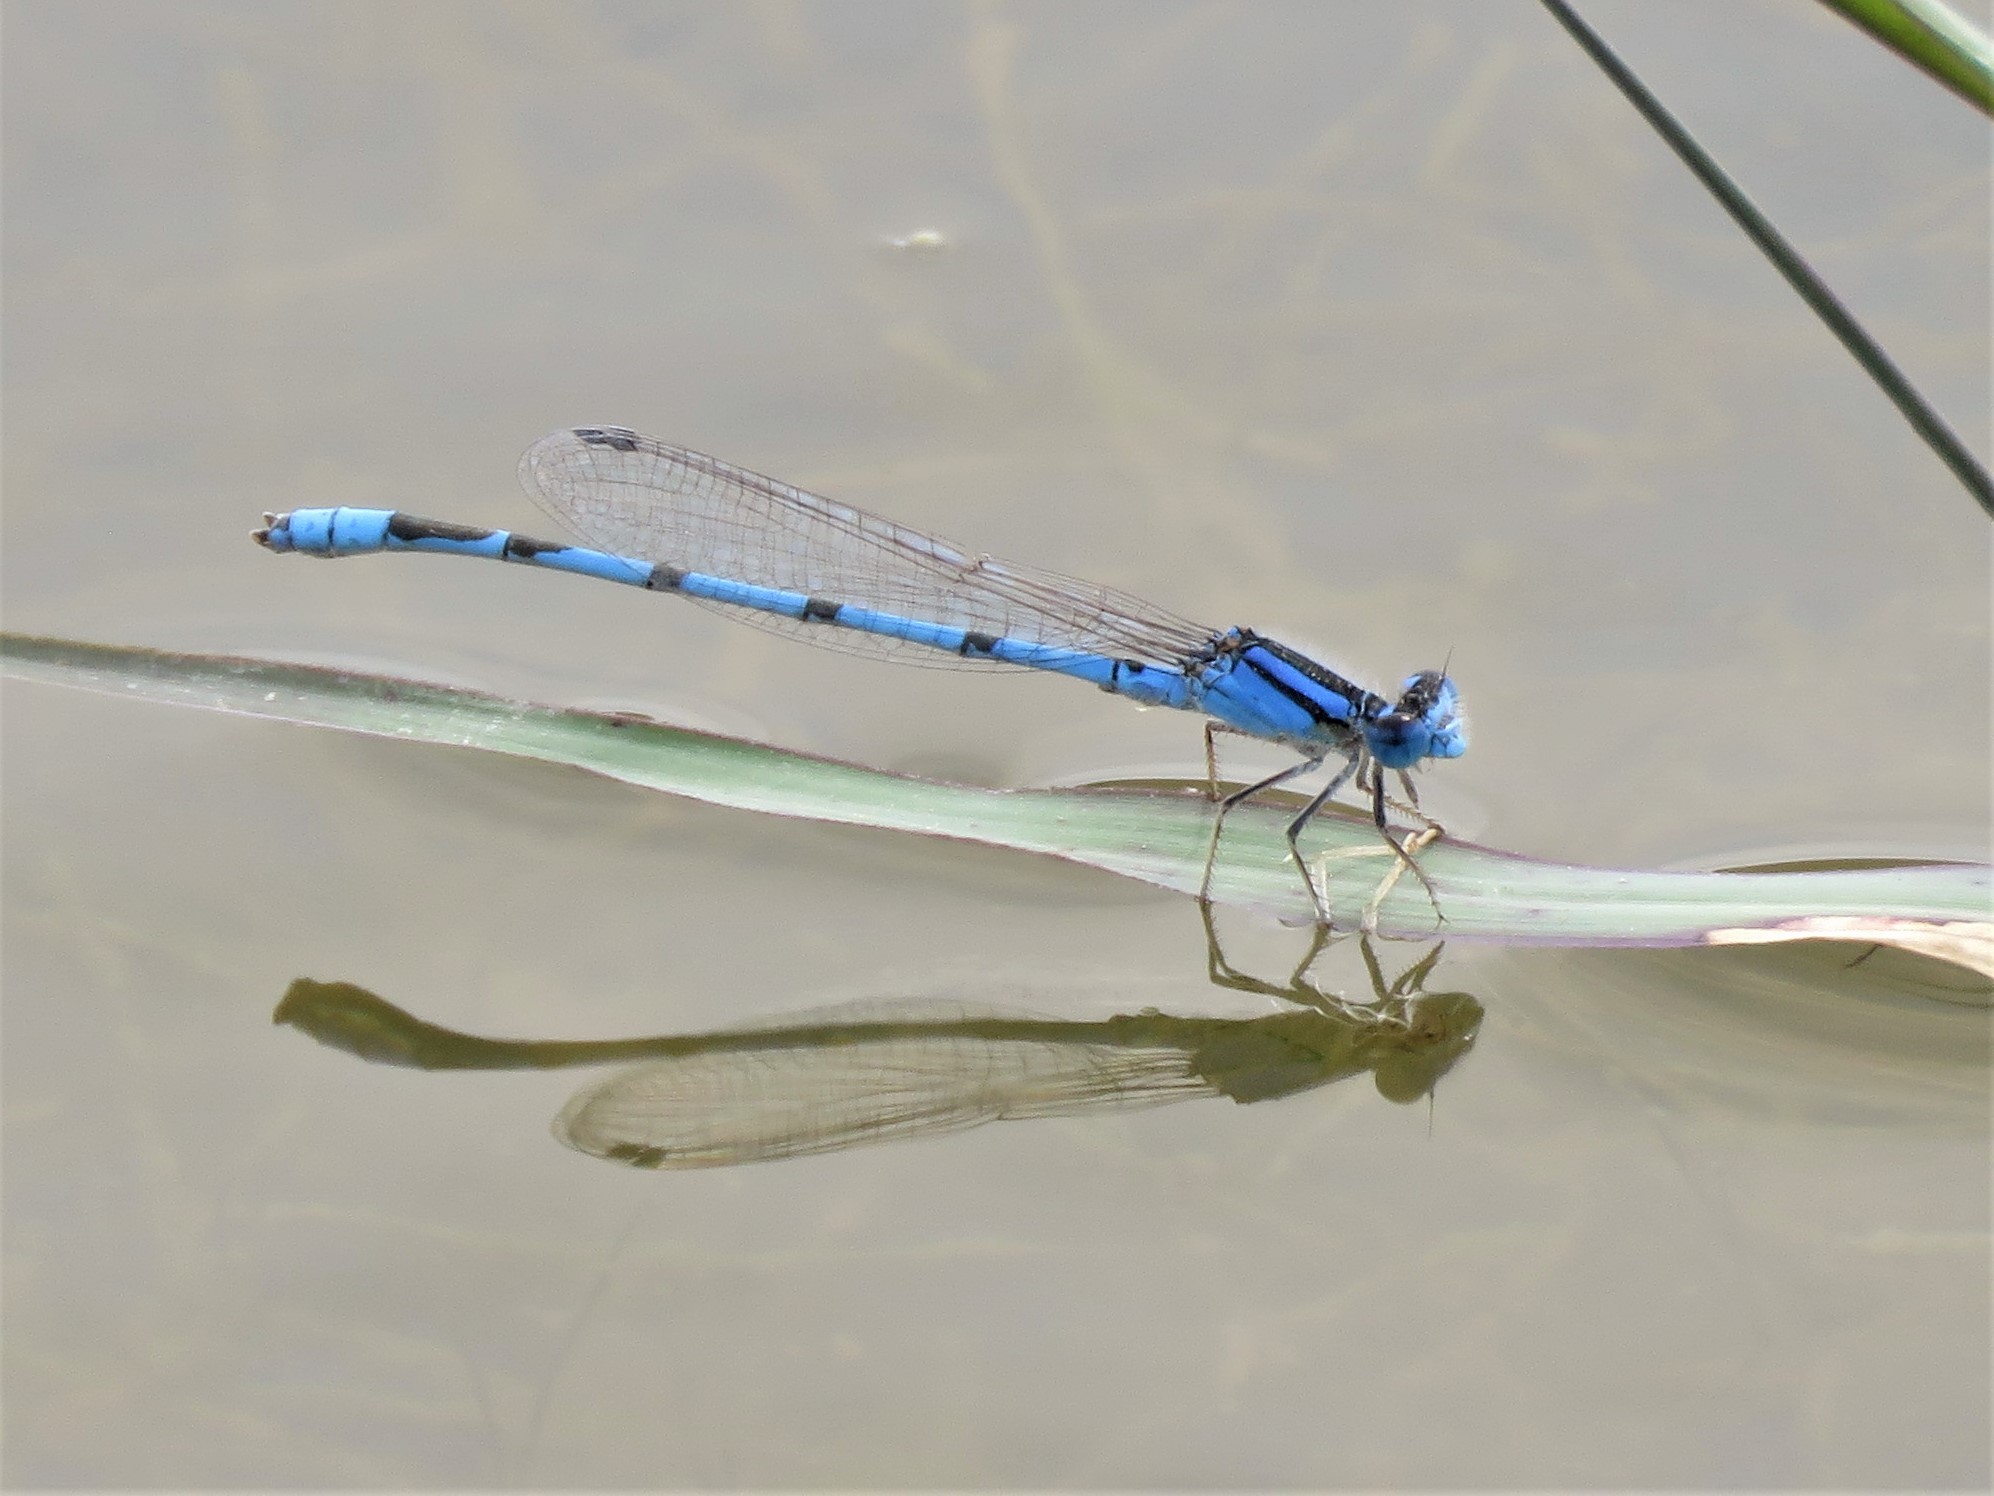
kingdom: Animalia
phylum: Arthropoda
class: Insecta
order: Odonata
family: Coenagrionidae
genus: Enallagma
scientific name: Enallagma civile
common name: Damselfly
